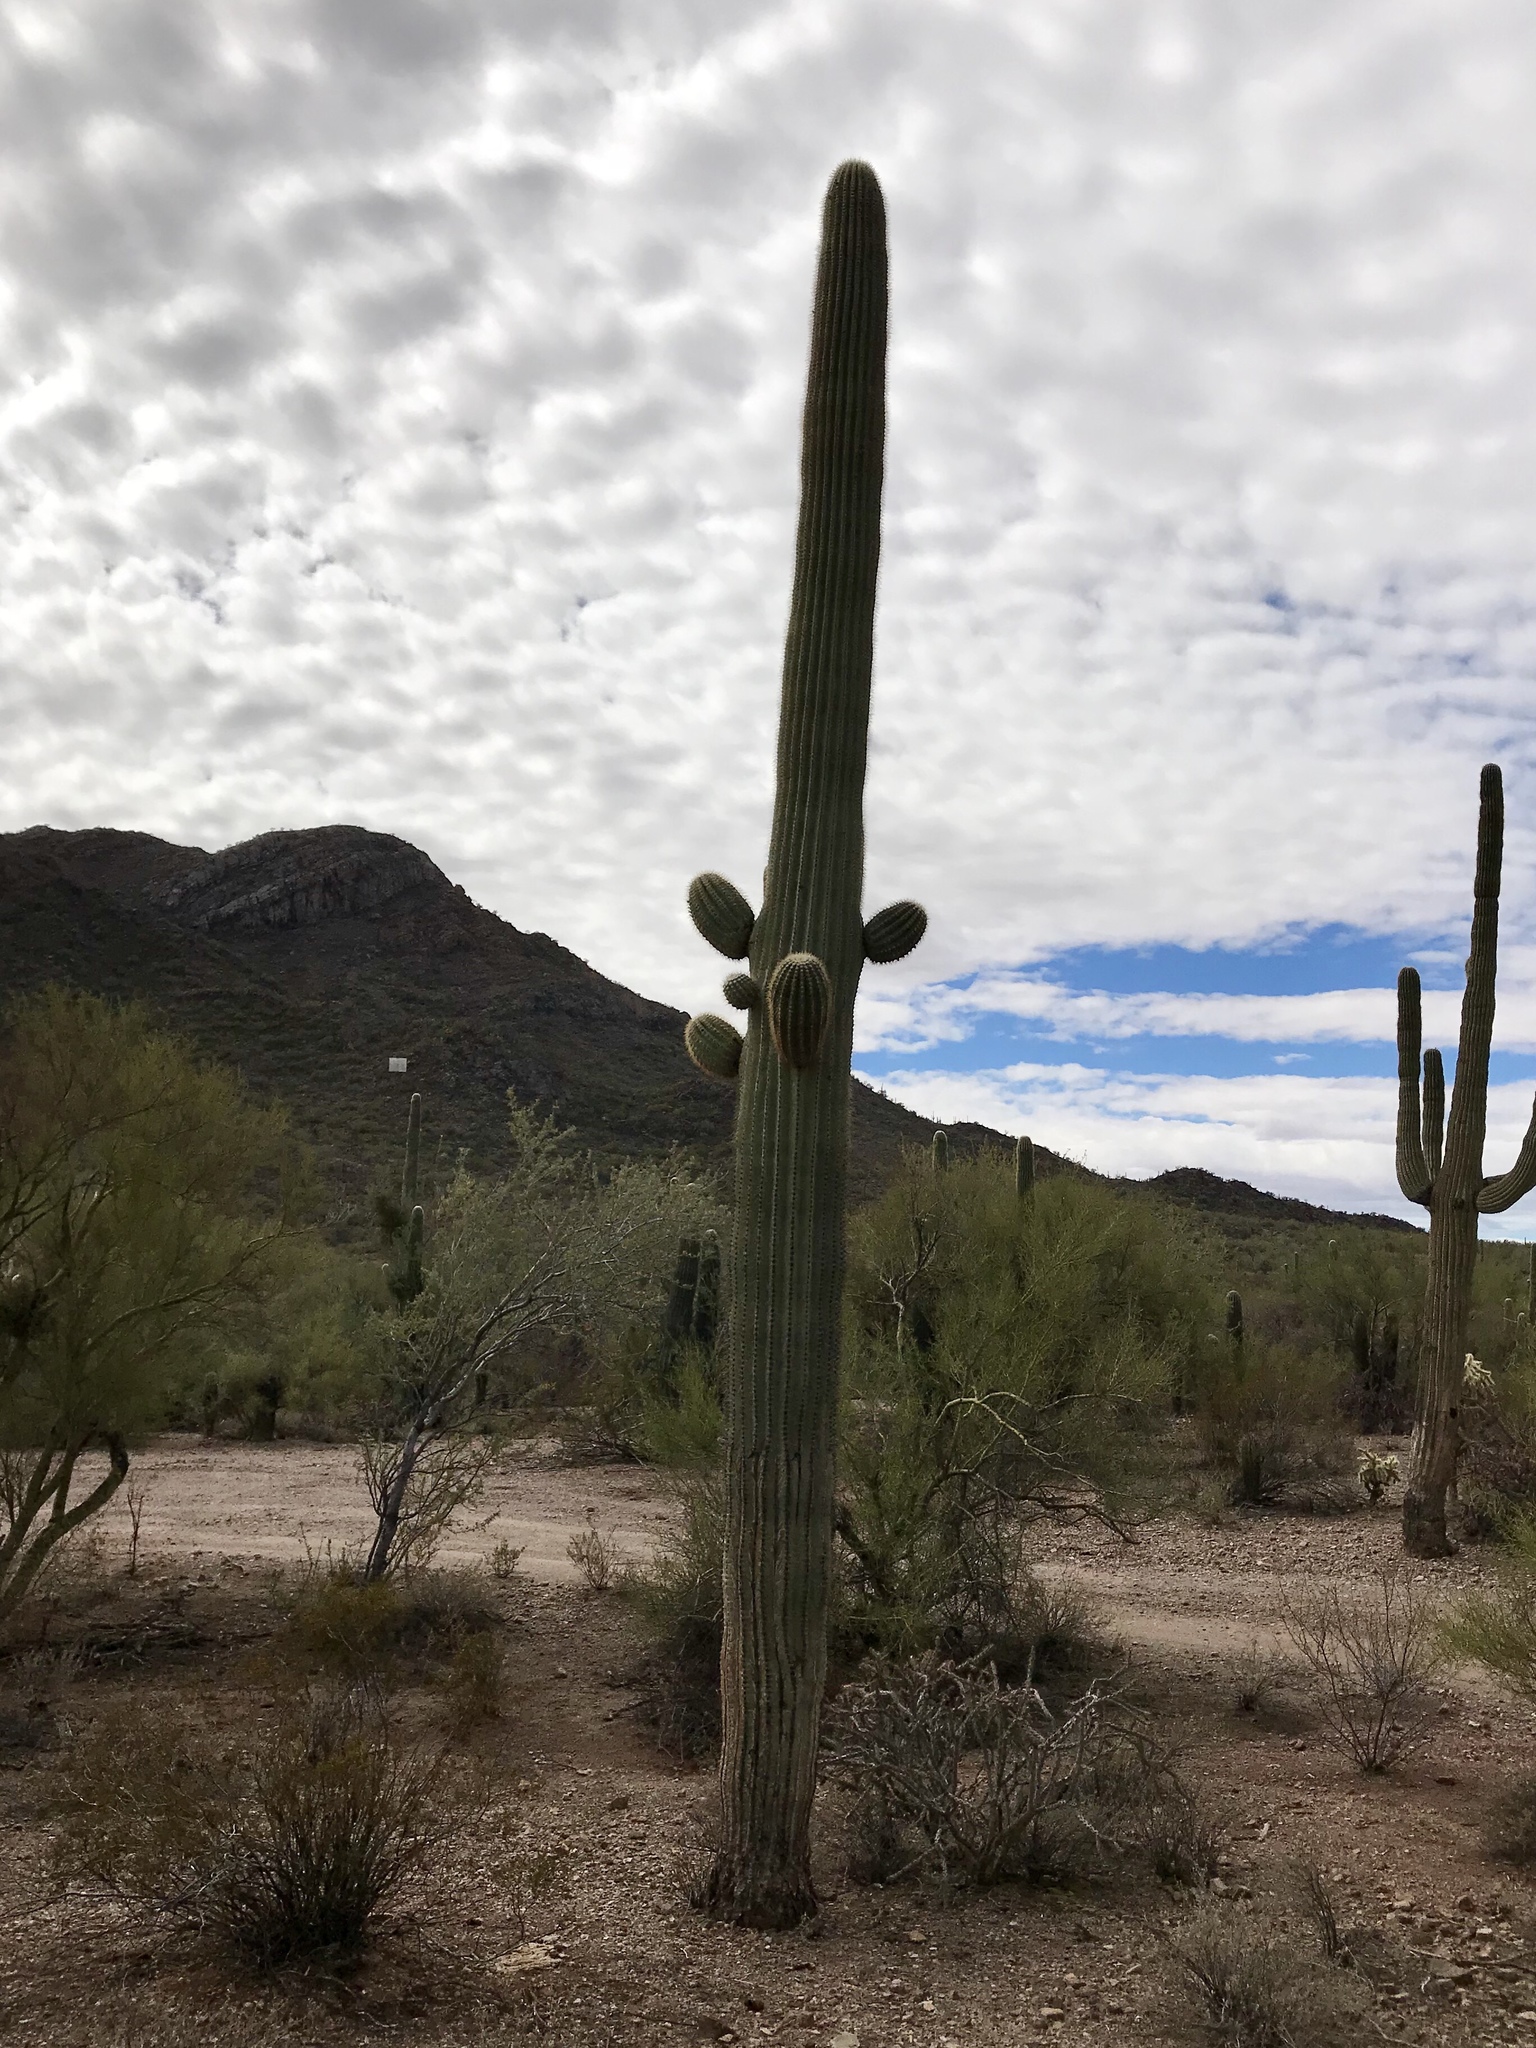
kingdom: Plantae
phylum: Tracheophyta
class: Magnoliopsida
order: Caryophyllales
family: Cactaceae
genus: Carnegiea
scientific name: Carnegiea gigantea
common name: Saguaro
